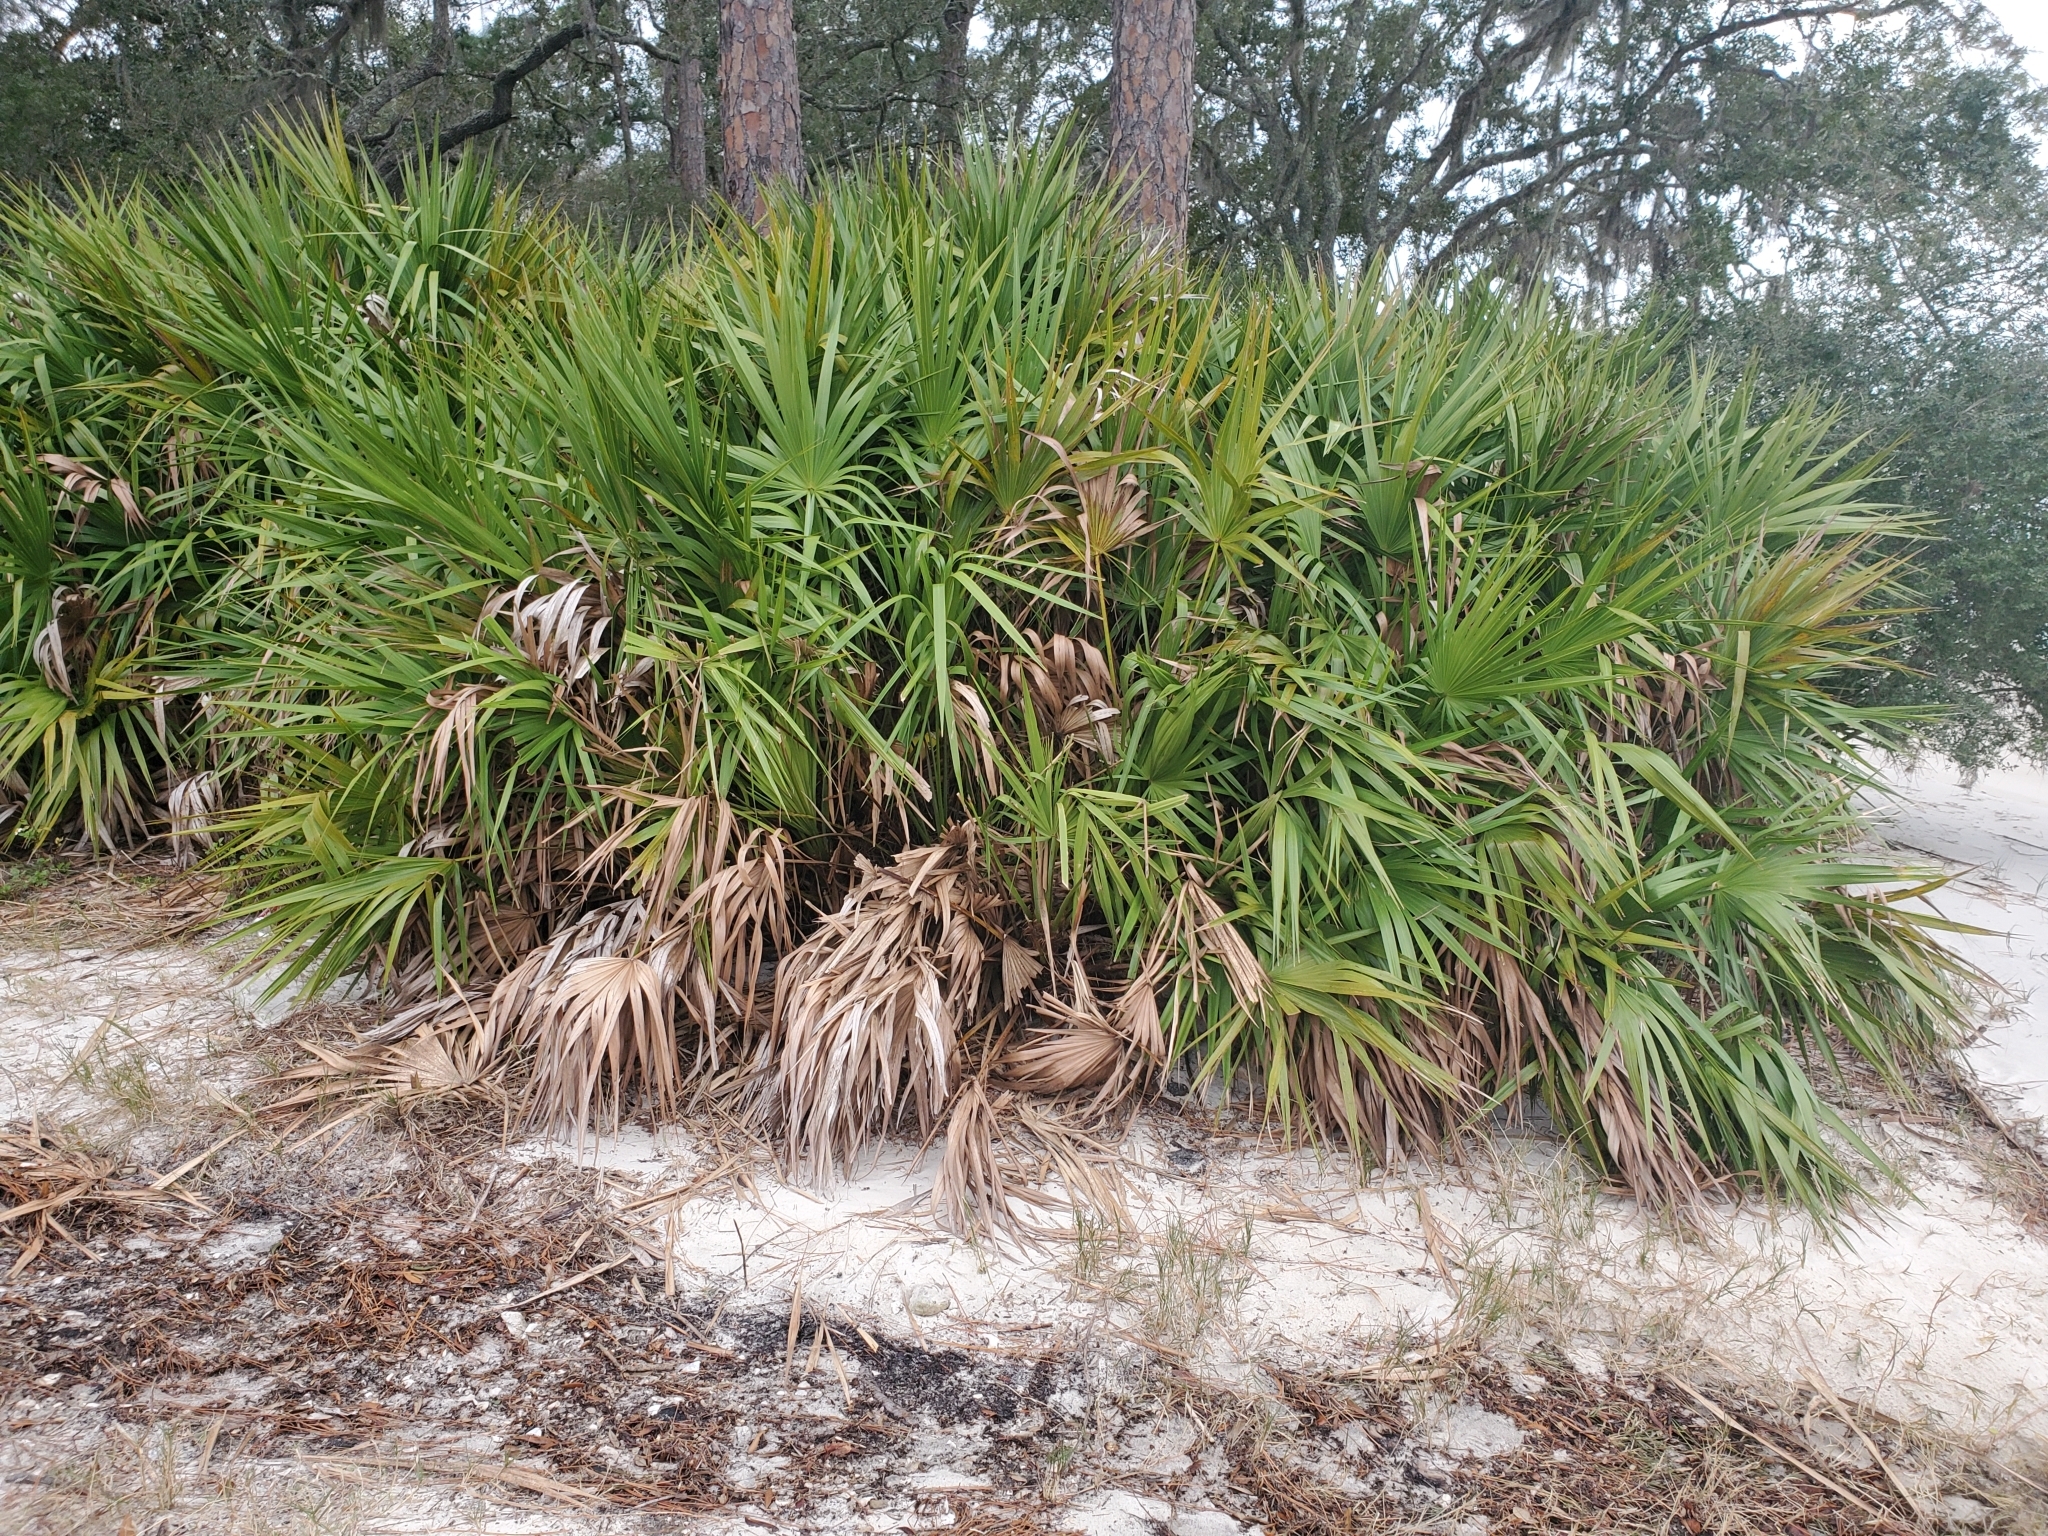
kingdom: Plantae
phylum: Tracheophyta
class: Liliopsida
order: Arecales
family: Arecaceae
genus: Serenoa
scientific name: Serenoa repens
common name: Saw-palmetto
